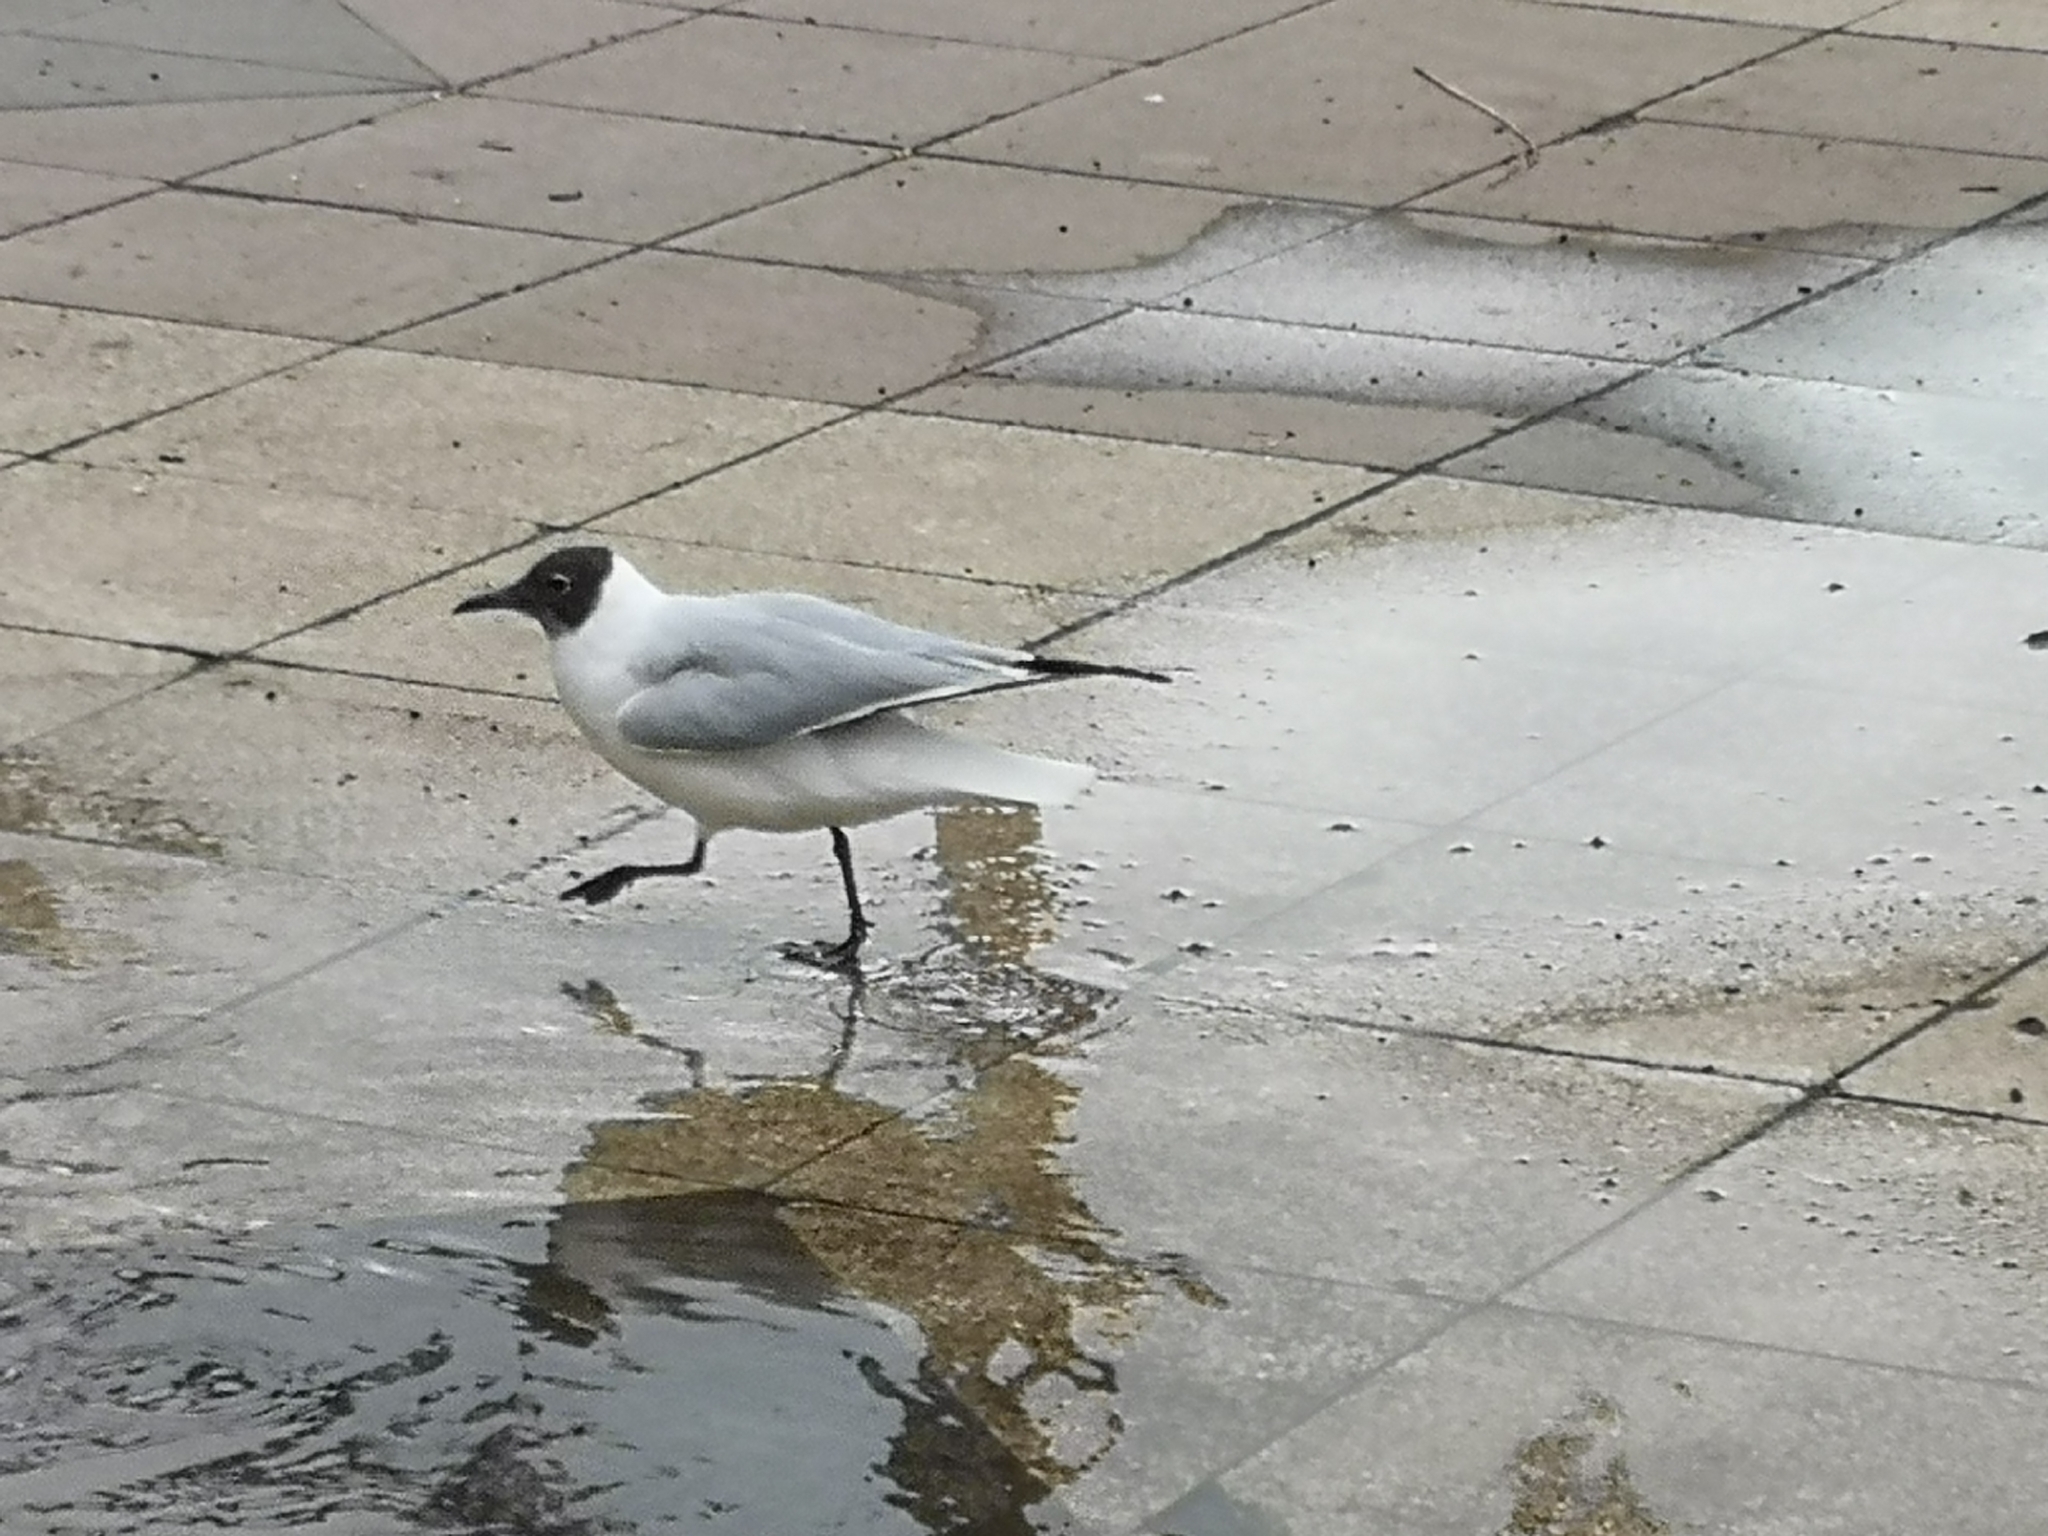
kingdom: Animalia
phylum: Chordata
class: Aves
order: Charadriiformes
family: Laridae
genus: Chroicocephalus
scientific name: Chroicocephalus ridibundus
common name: Black-headed gull
